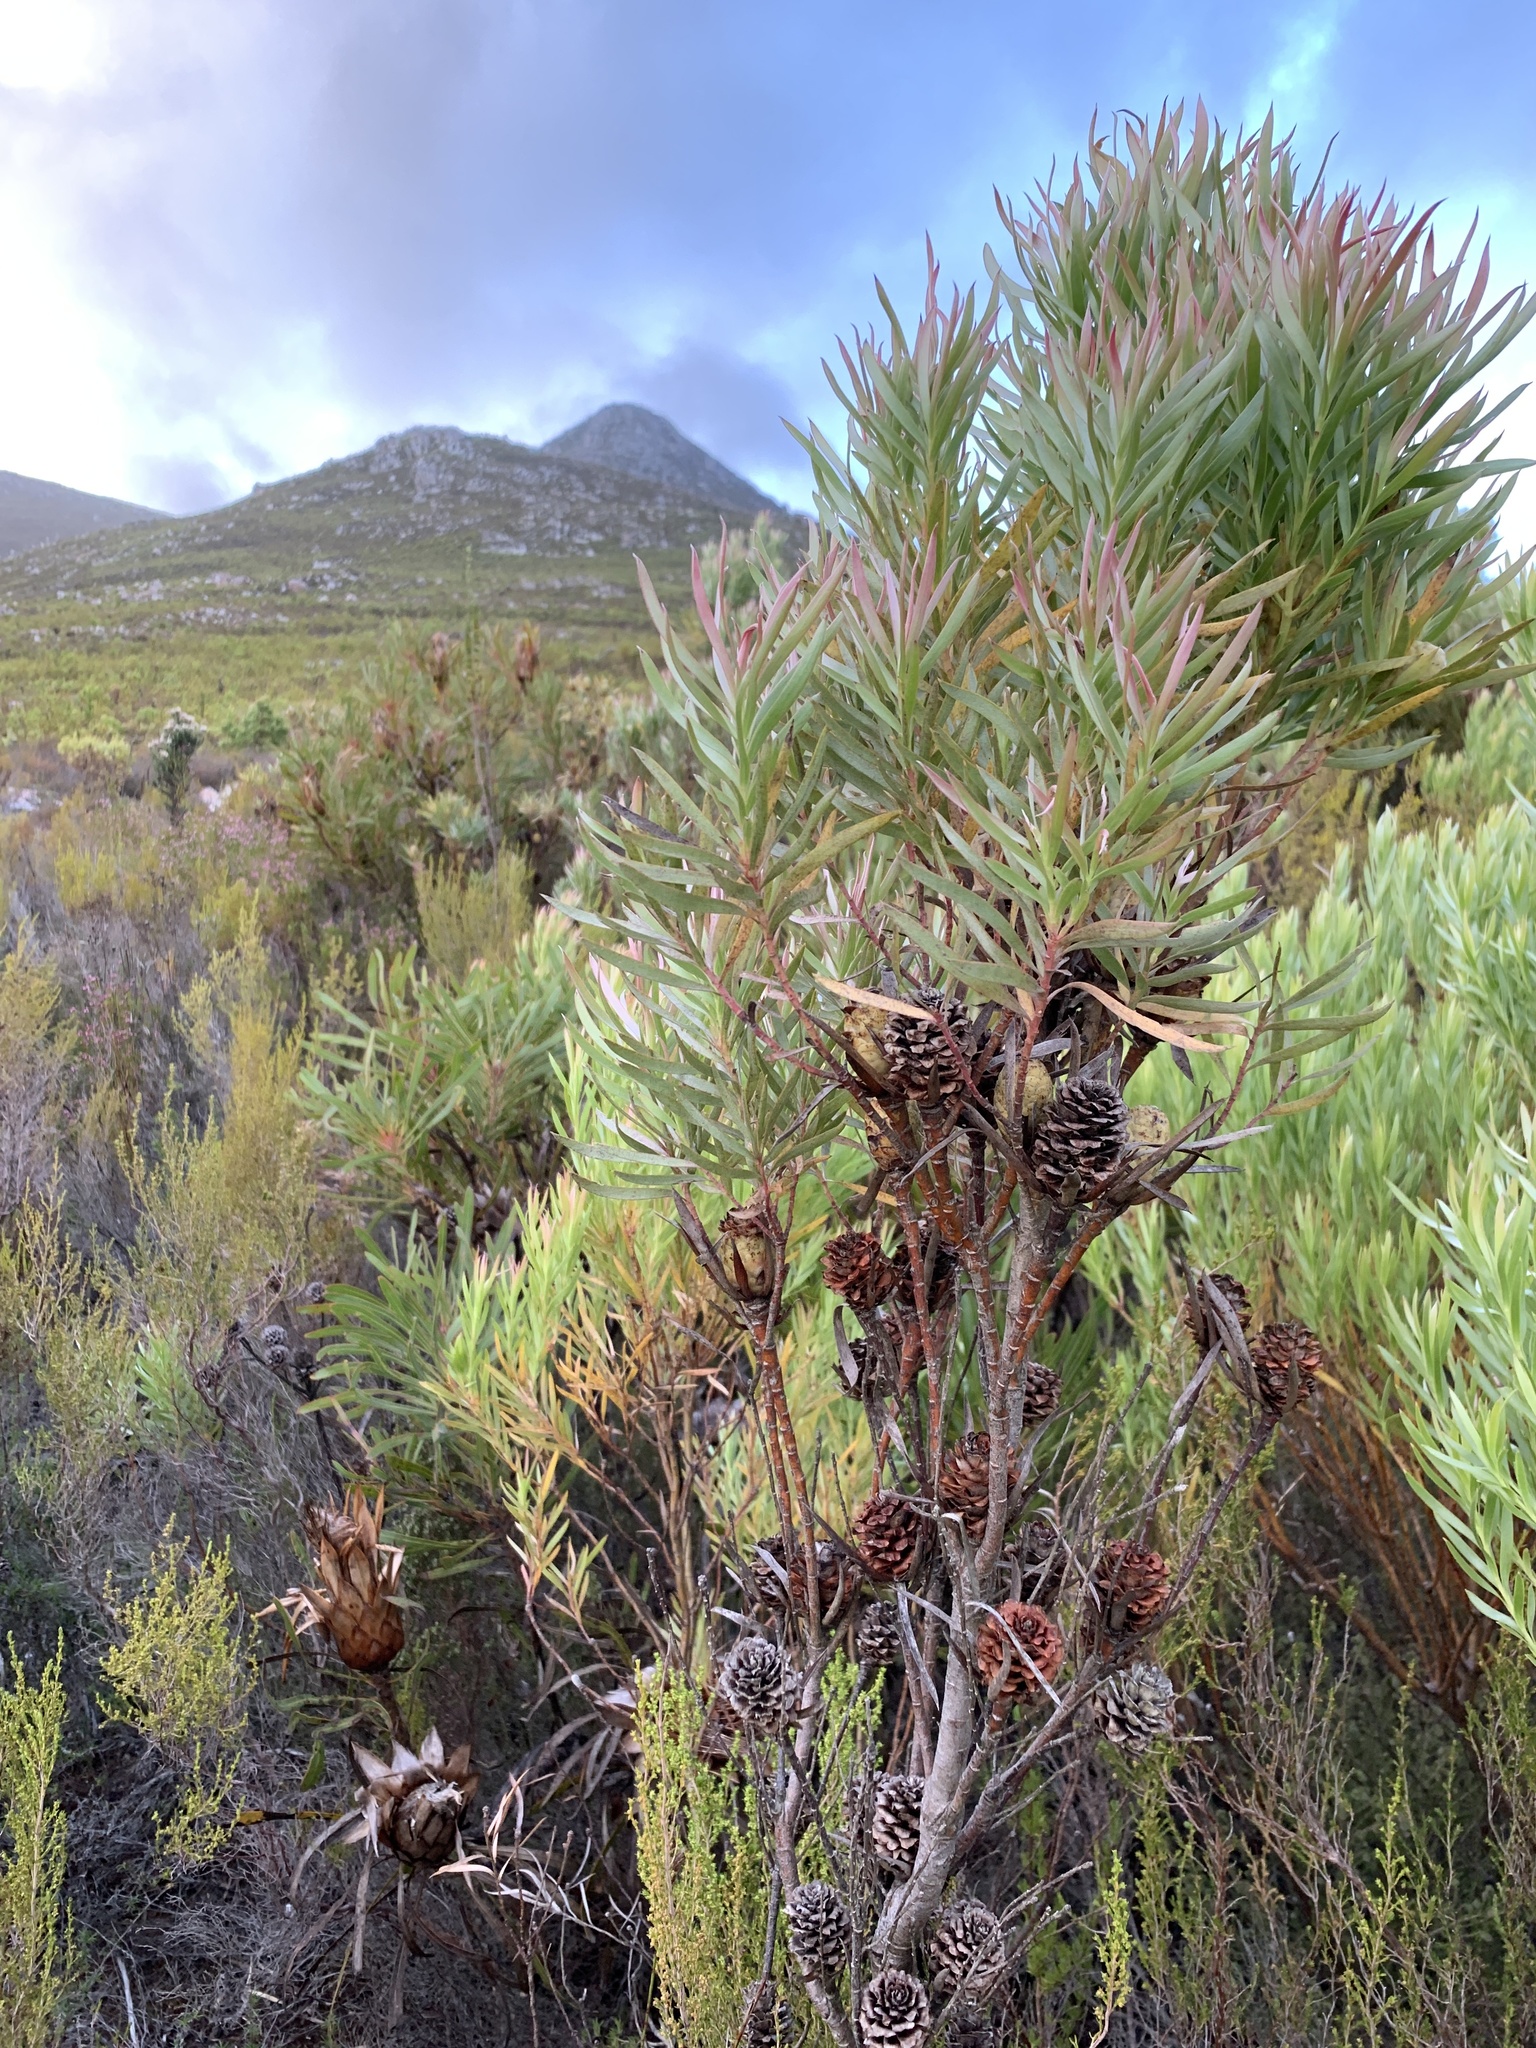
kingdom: Plantae
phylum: Tracheophyta
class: Magnoliopsida
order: Proteales
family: Proteaceae
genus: Leucadendron
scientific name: Leucadendron xanthoconus
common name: Sickle-leaf conebush
